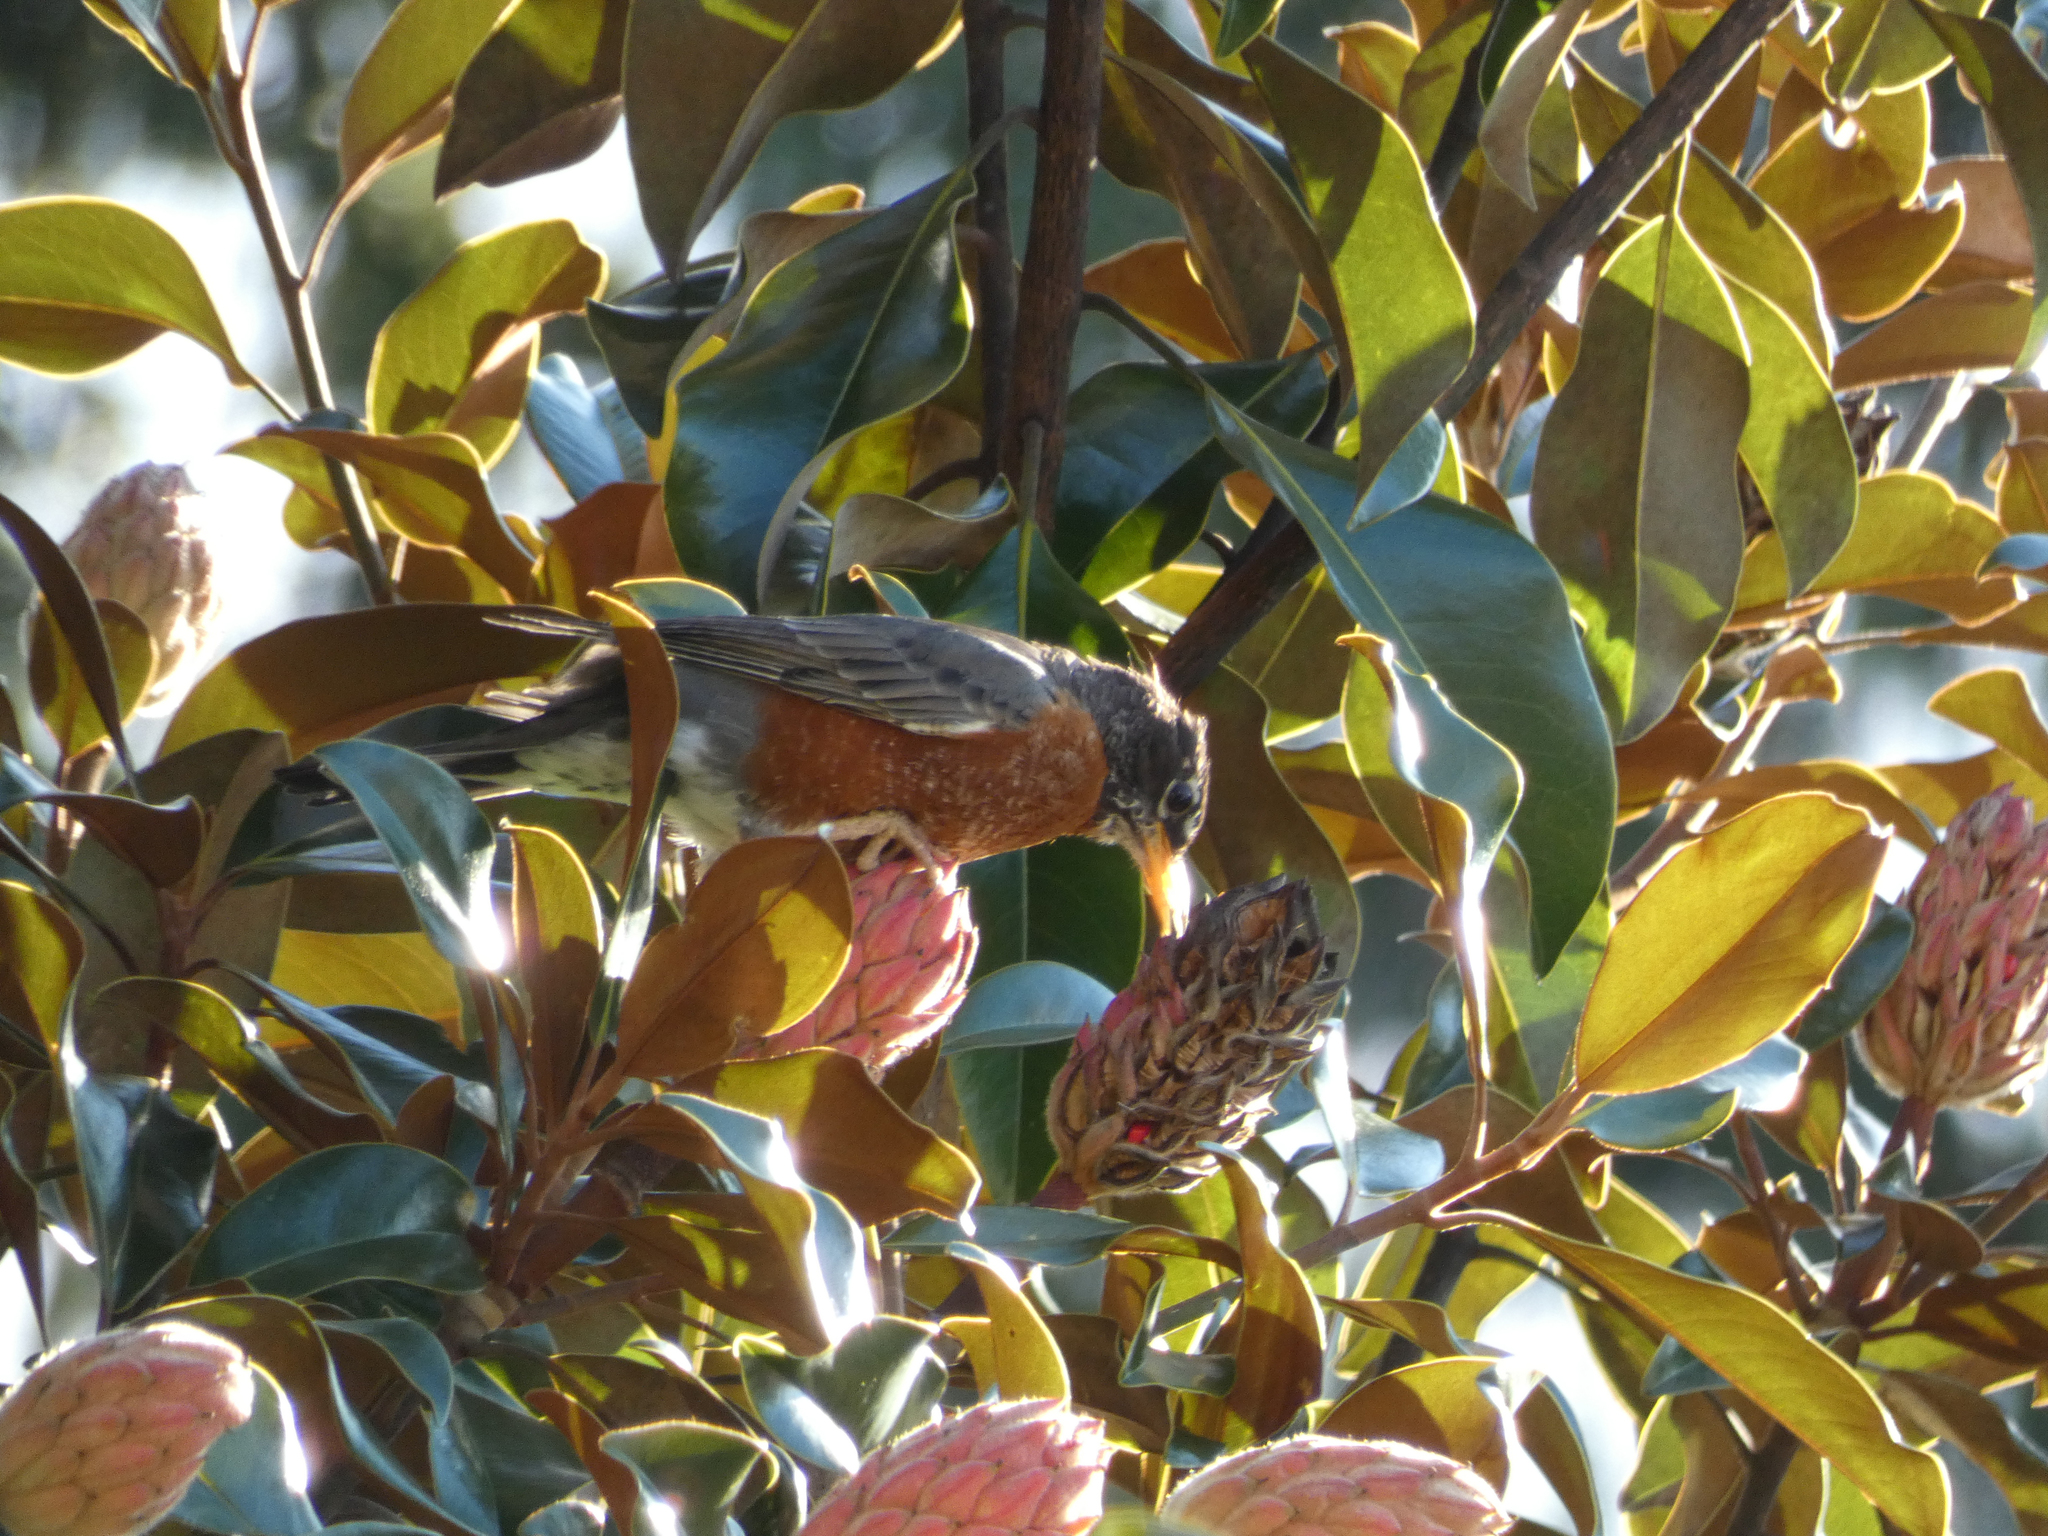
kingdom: Animalia
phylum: Chordata
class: Aves
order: Passeriformes
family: Turdidae
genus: Turdus
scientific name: Turdus migratorius
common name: American robin
